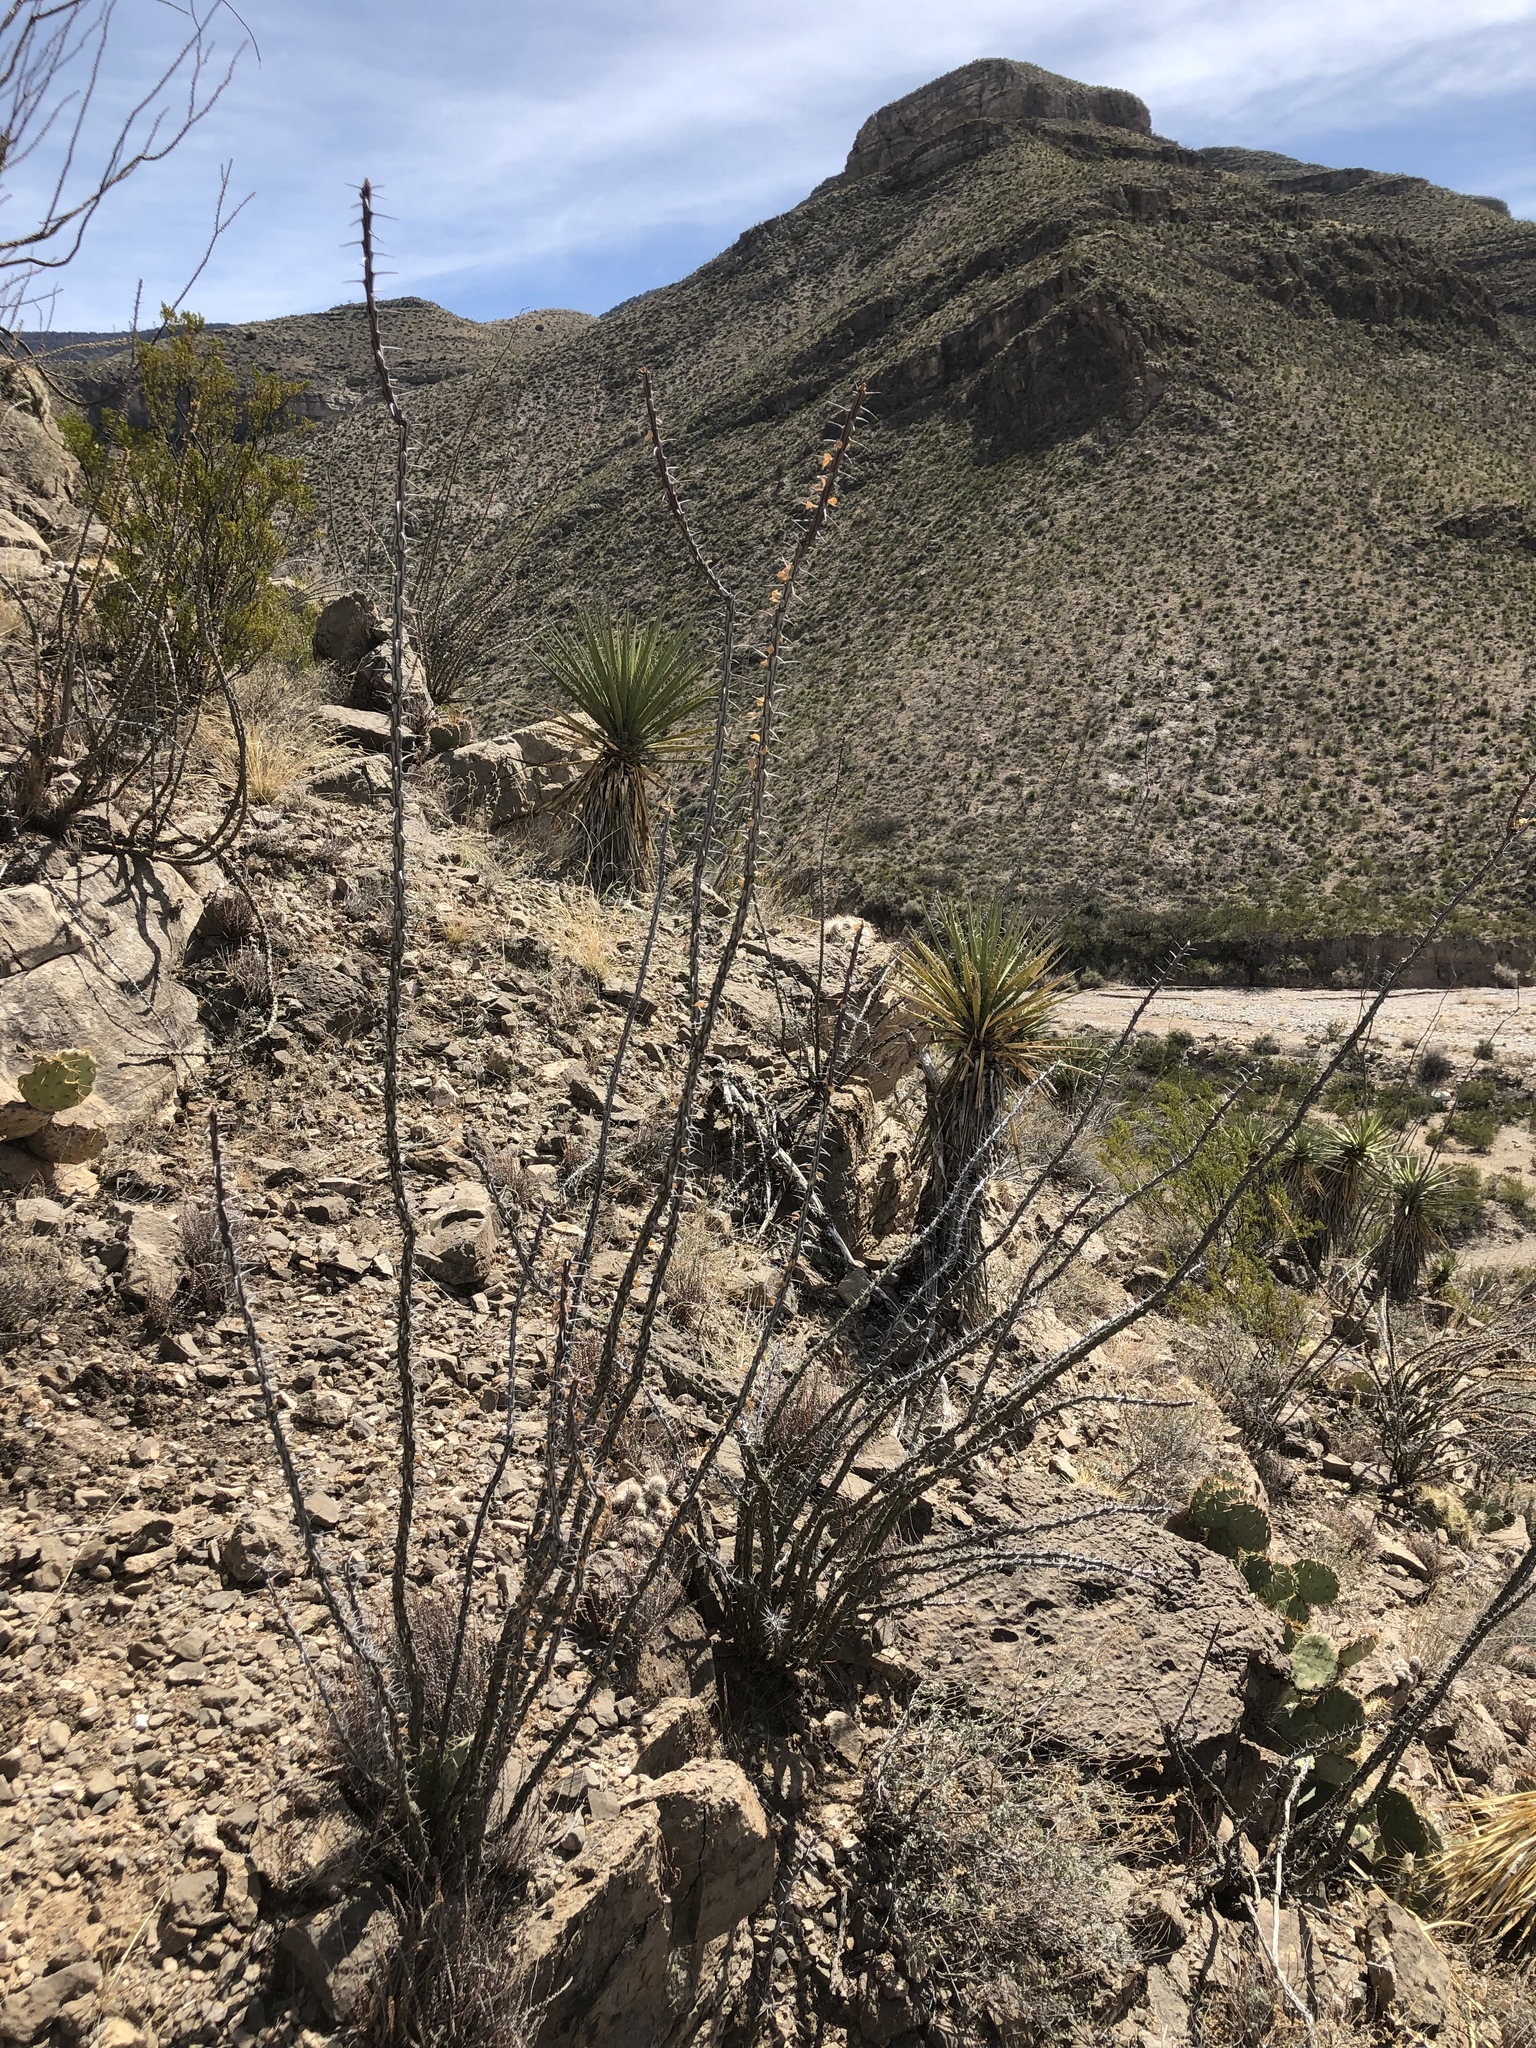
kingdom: Plantae
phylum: Tracheophyta
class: Magnoliopsida
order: Ericales
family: Fouquieriaceae
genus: Fouquieria
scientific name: Fouquieria splendens
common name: Vine-cactus
